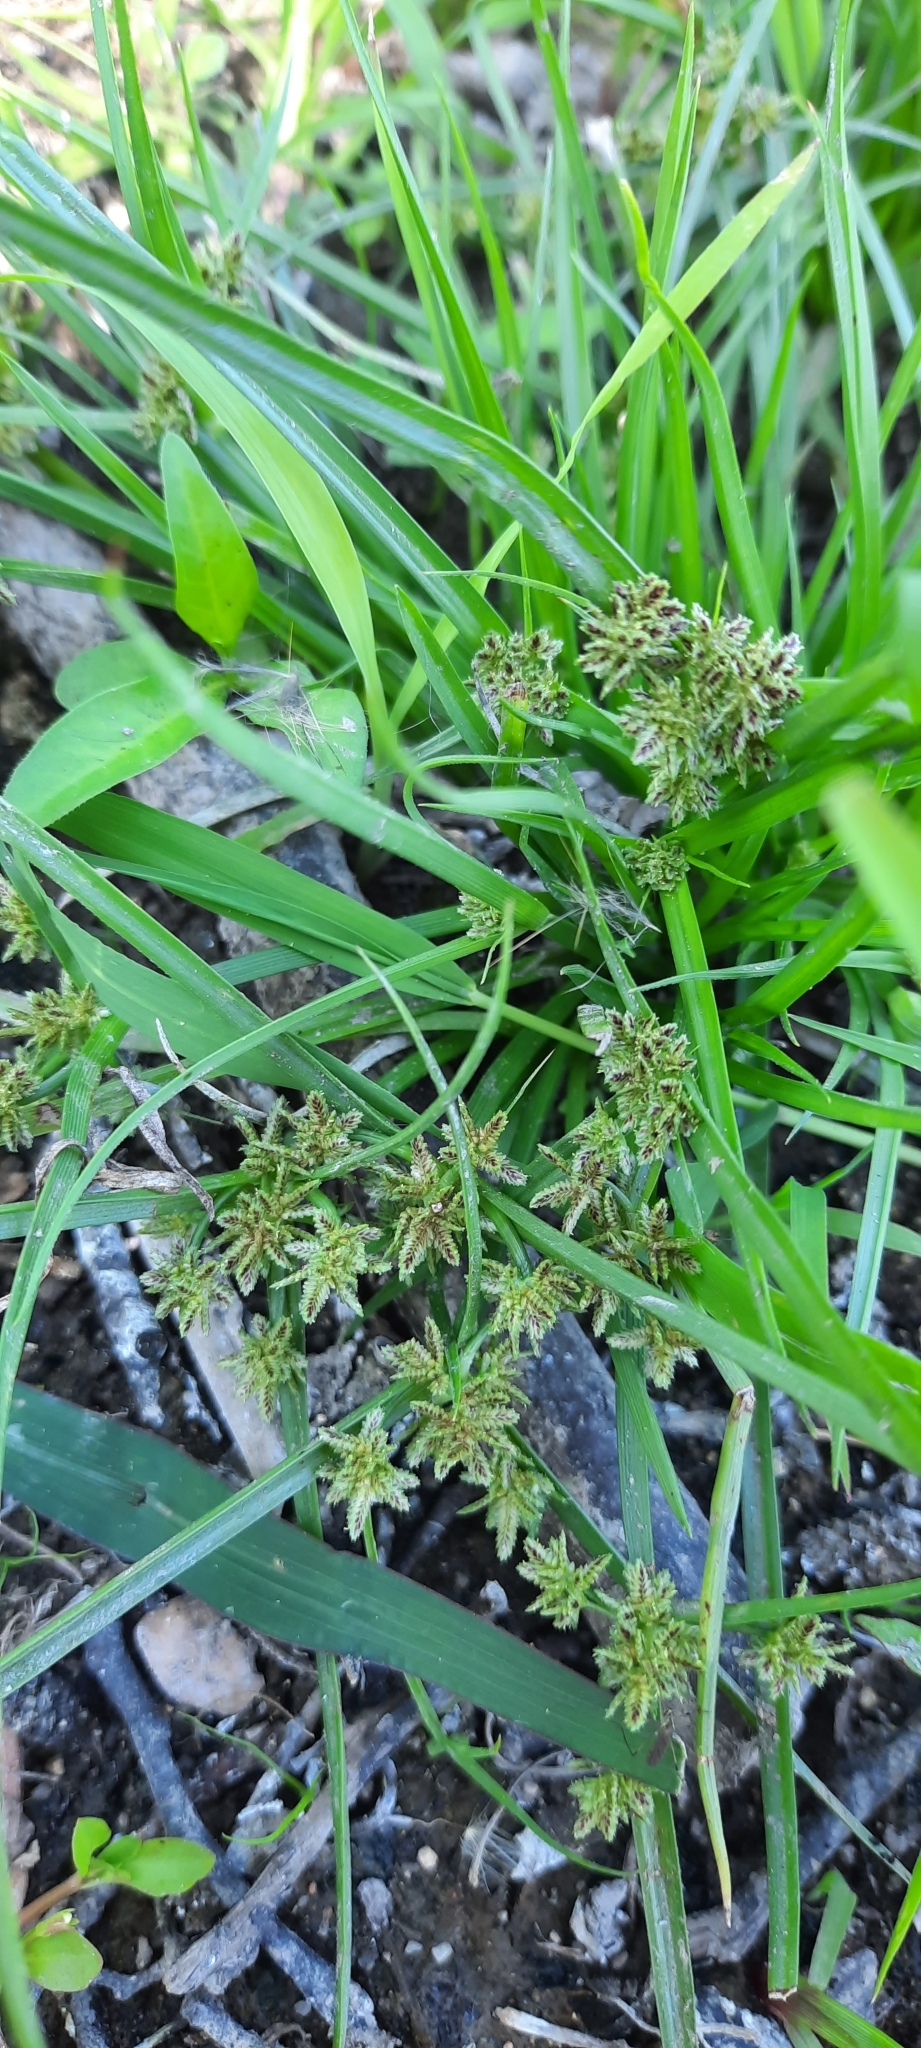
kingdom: Plantae
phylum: Tracheophyta
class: Liliopsida
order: Poales
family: Cyperaceae
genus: Cyperus
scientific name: Cyperus fuscus
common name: Brown galingale
